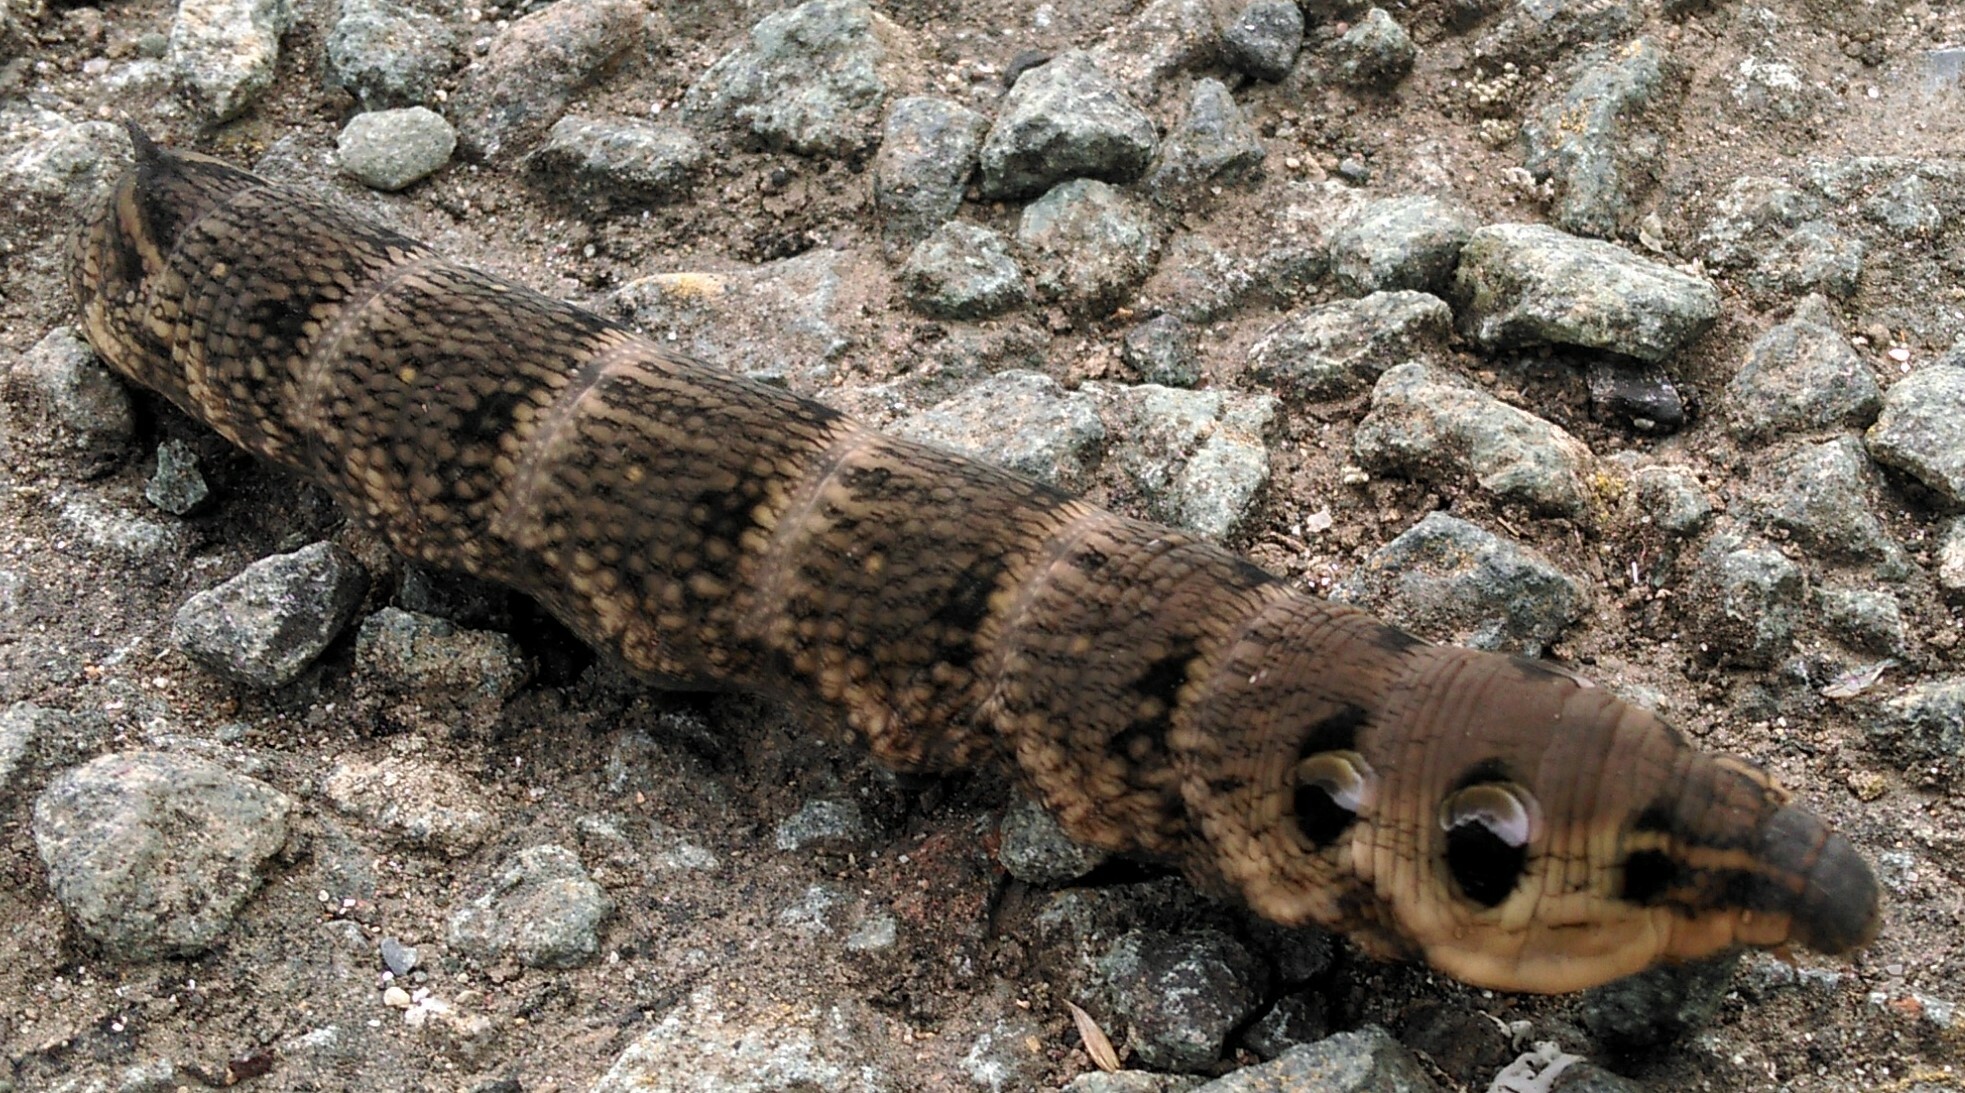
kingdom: Animalia
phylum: Arthropoda
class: Insecta
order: Lepidoptera
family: Sphingidae
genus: Deilephila
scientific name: Deilephila elpenor
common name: Elephant hawk-moth
